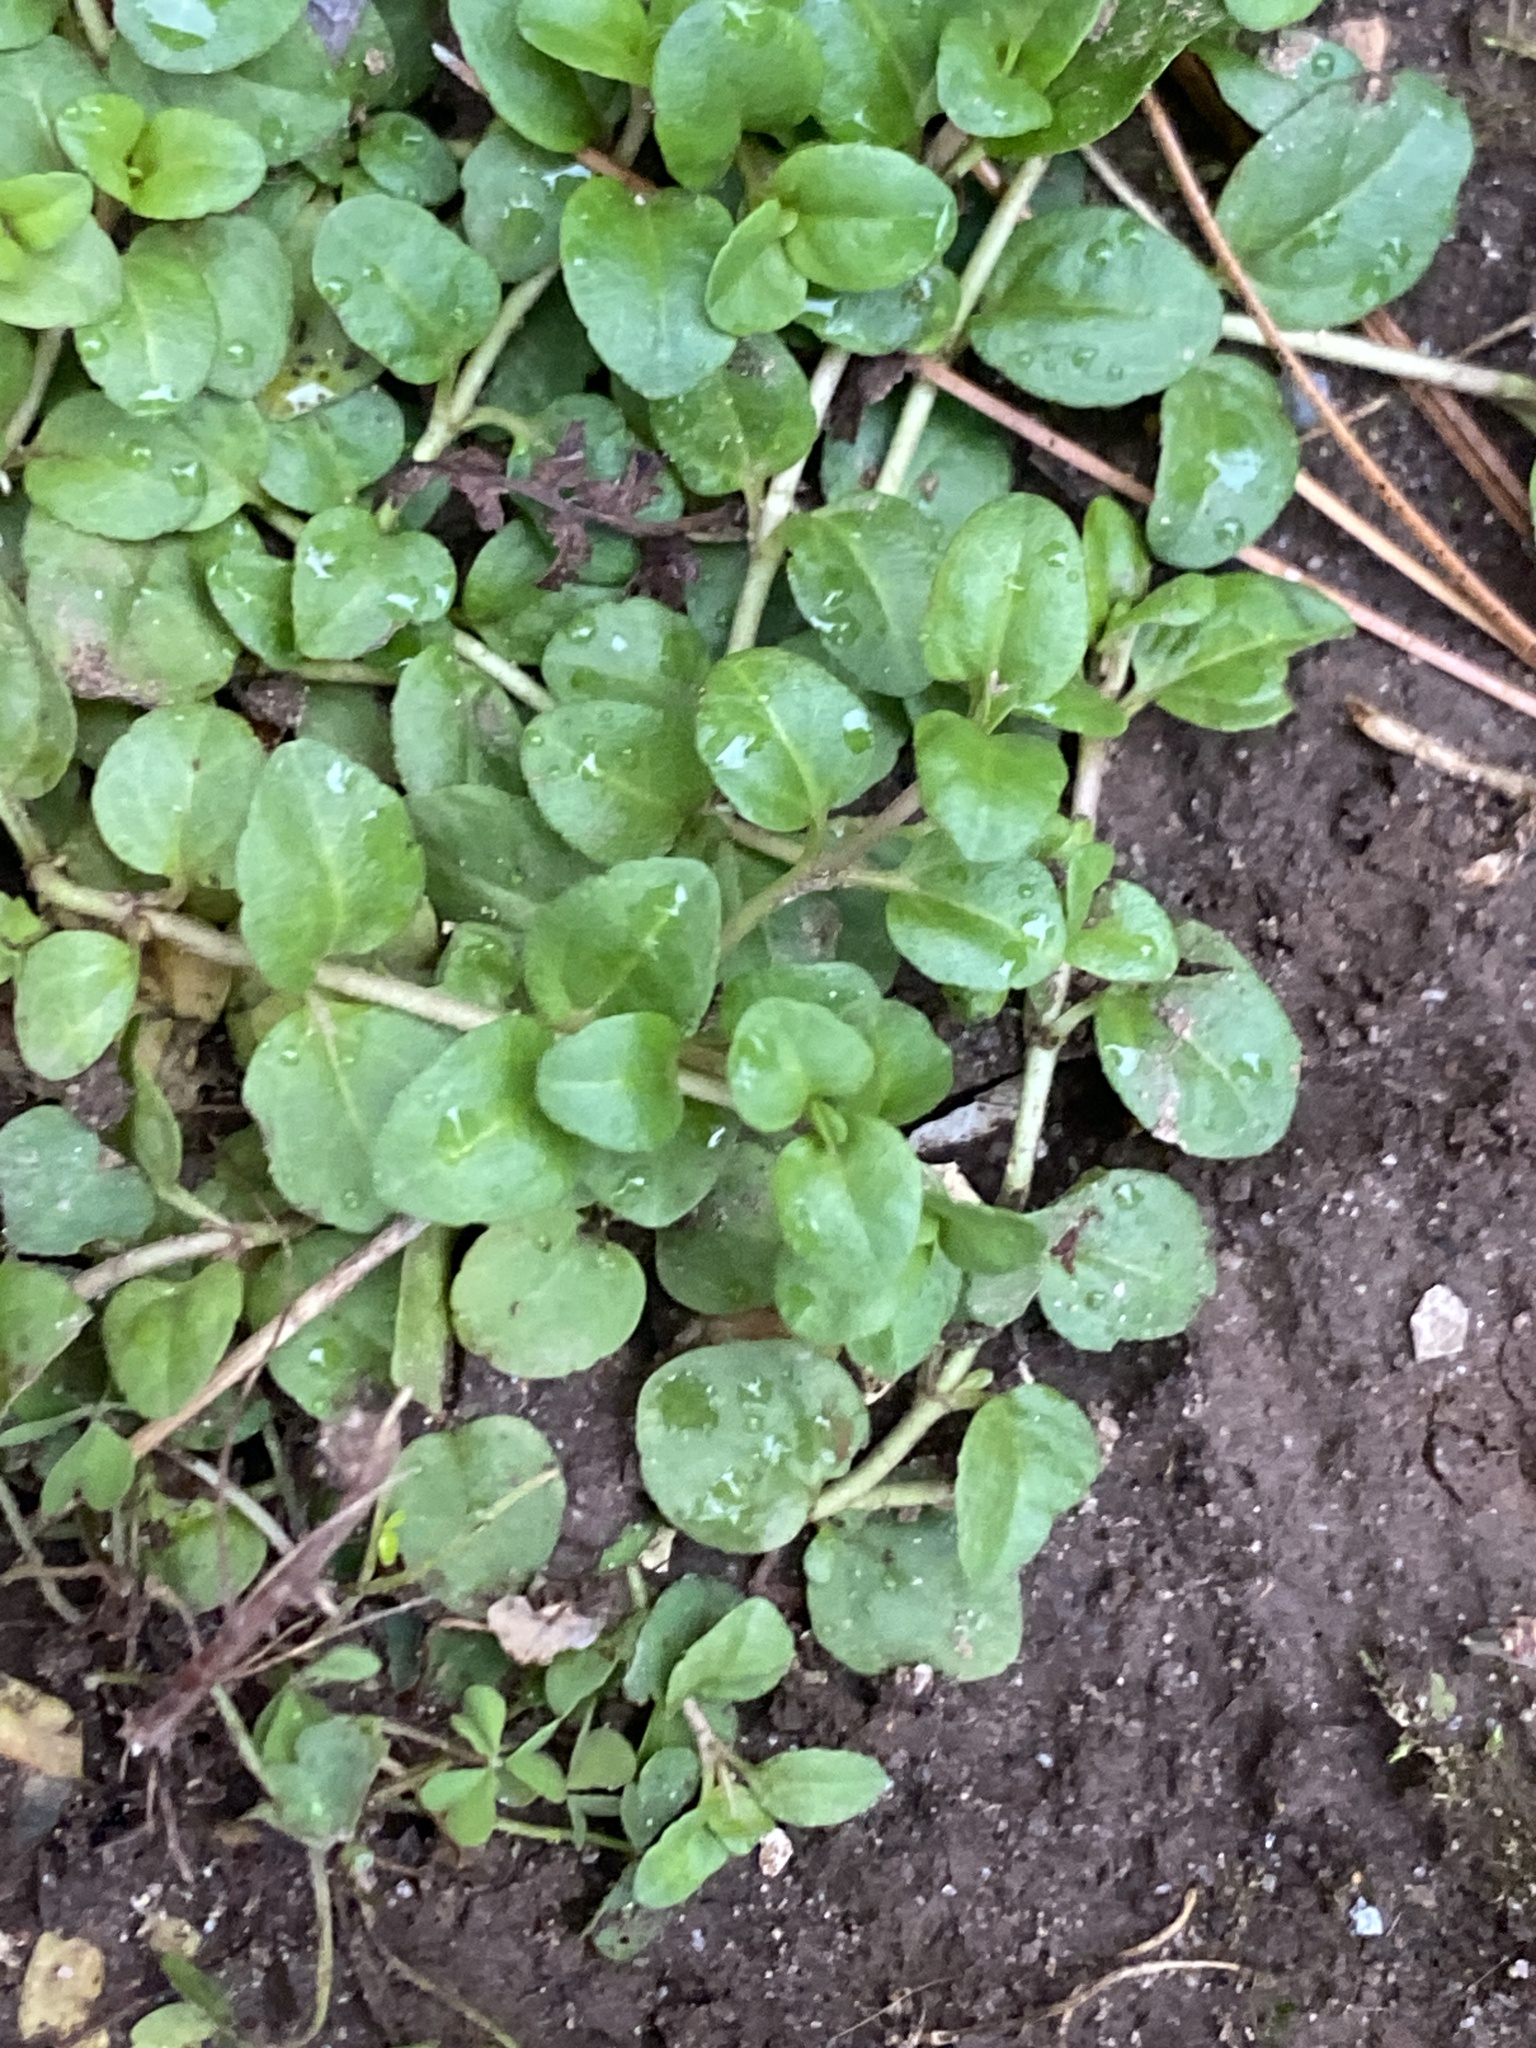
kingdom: Plantae
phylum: Tracheophyta
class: Magnoliopsida
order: Lamiales
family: Plantaginaceae
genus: Veronica
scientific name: Veronica serpyllifolia
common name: Thyme-leaved speedwell
